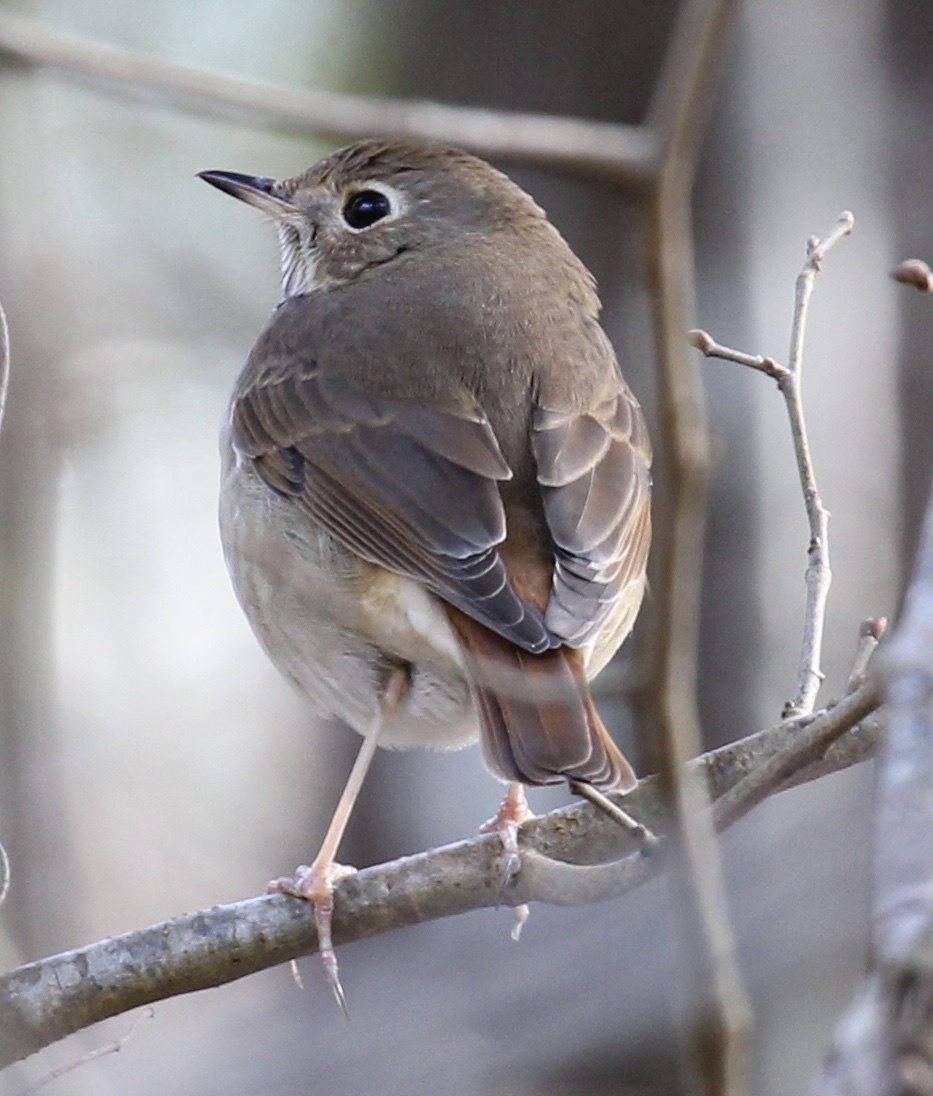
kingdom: Animalia
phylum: Chordata
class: Aves
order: Passeriformes
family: Turdidae
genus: Catharus
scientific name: Catharus guttatus
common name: Hermit thrush
